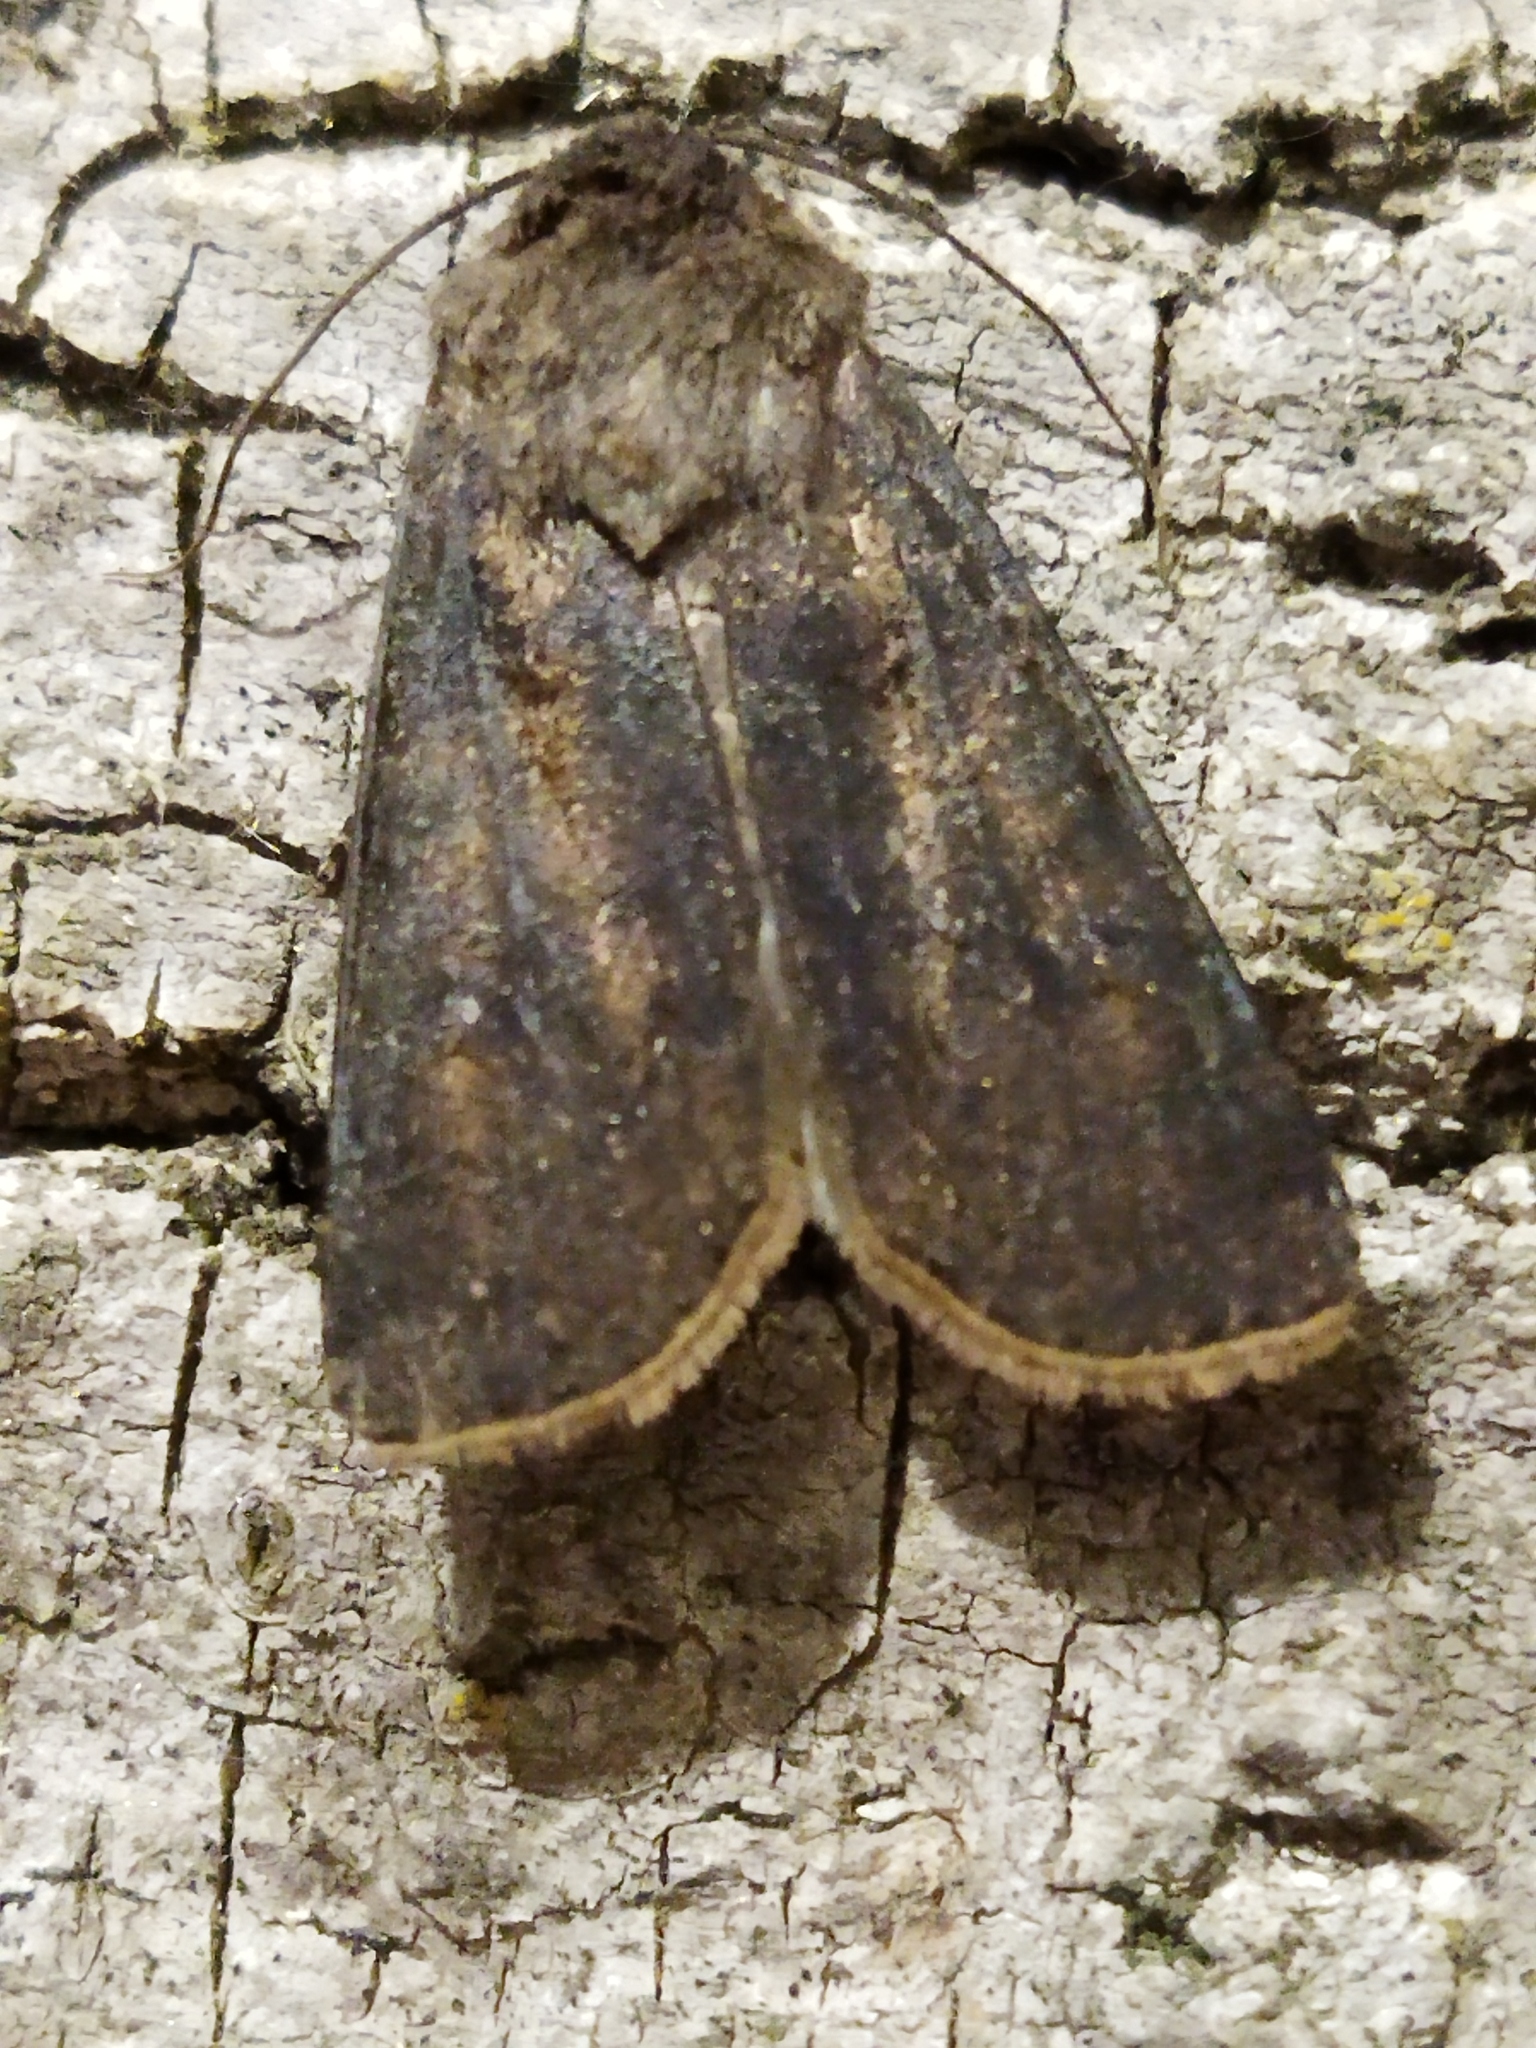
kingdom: Animalia
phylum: Arthropoda
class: Insecta
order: Lepidoptera
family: Noctuidae
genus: Agrotis
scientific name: Agrotis segetum
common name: Turnip moth
